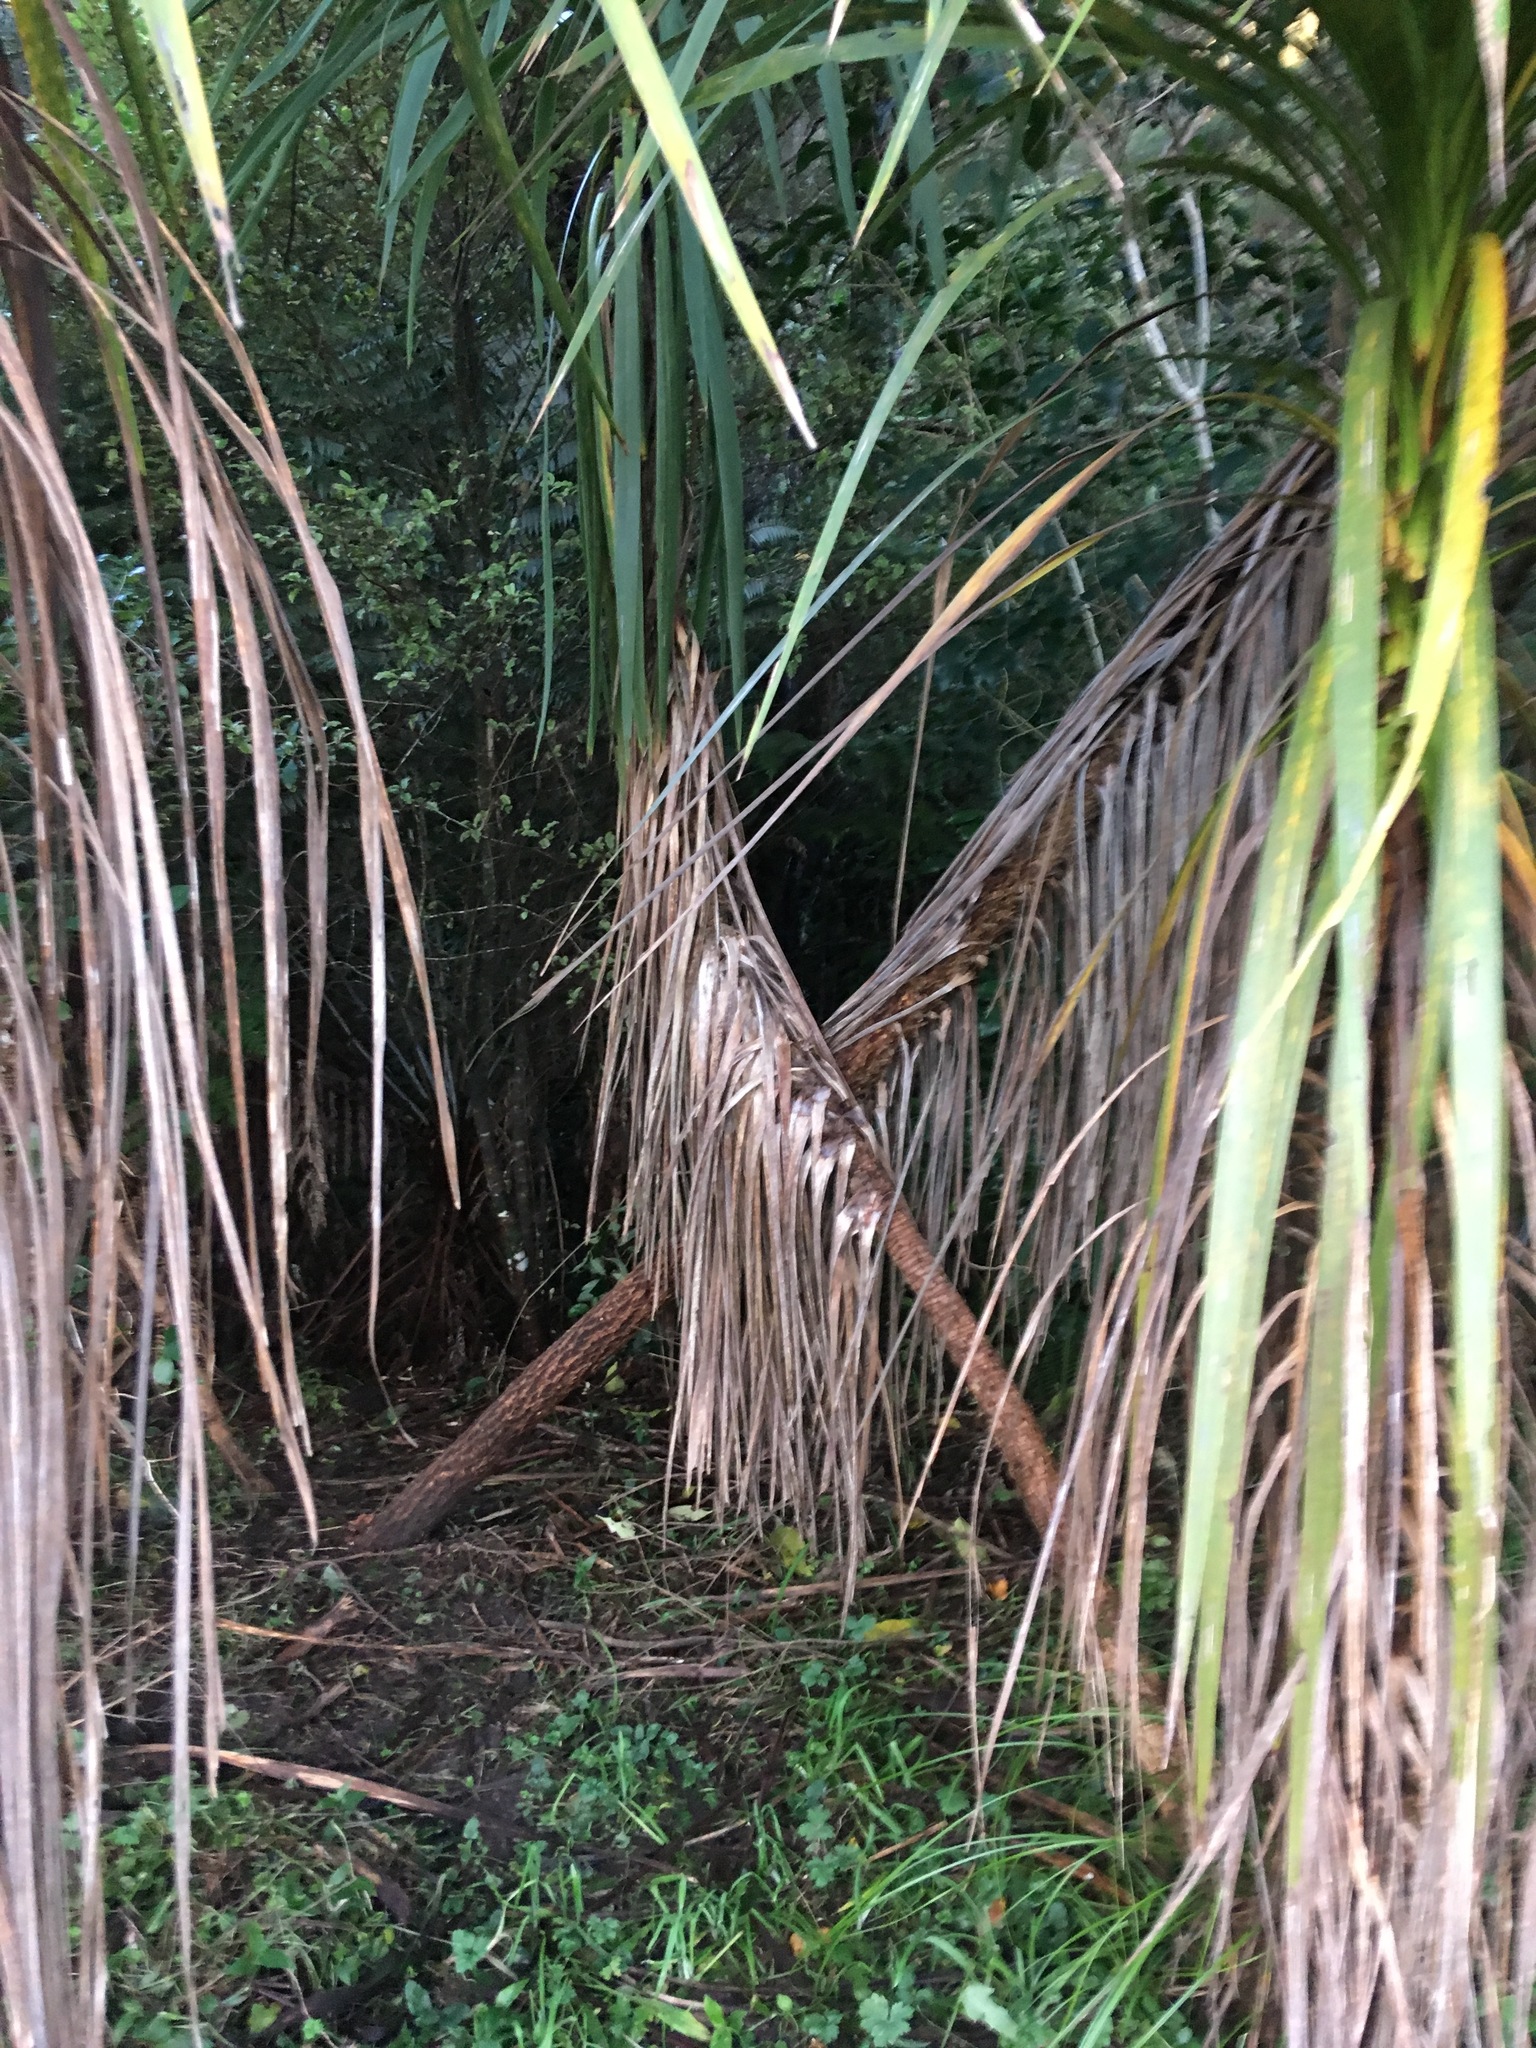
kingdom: Plantae
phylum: Tracheophyta
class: Liliopsida
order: Asparagales
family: Asparagaceae
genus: Cordyline
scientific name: Cordyline australis
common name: Cabbage-palm
